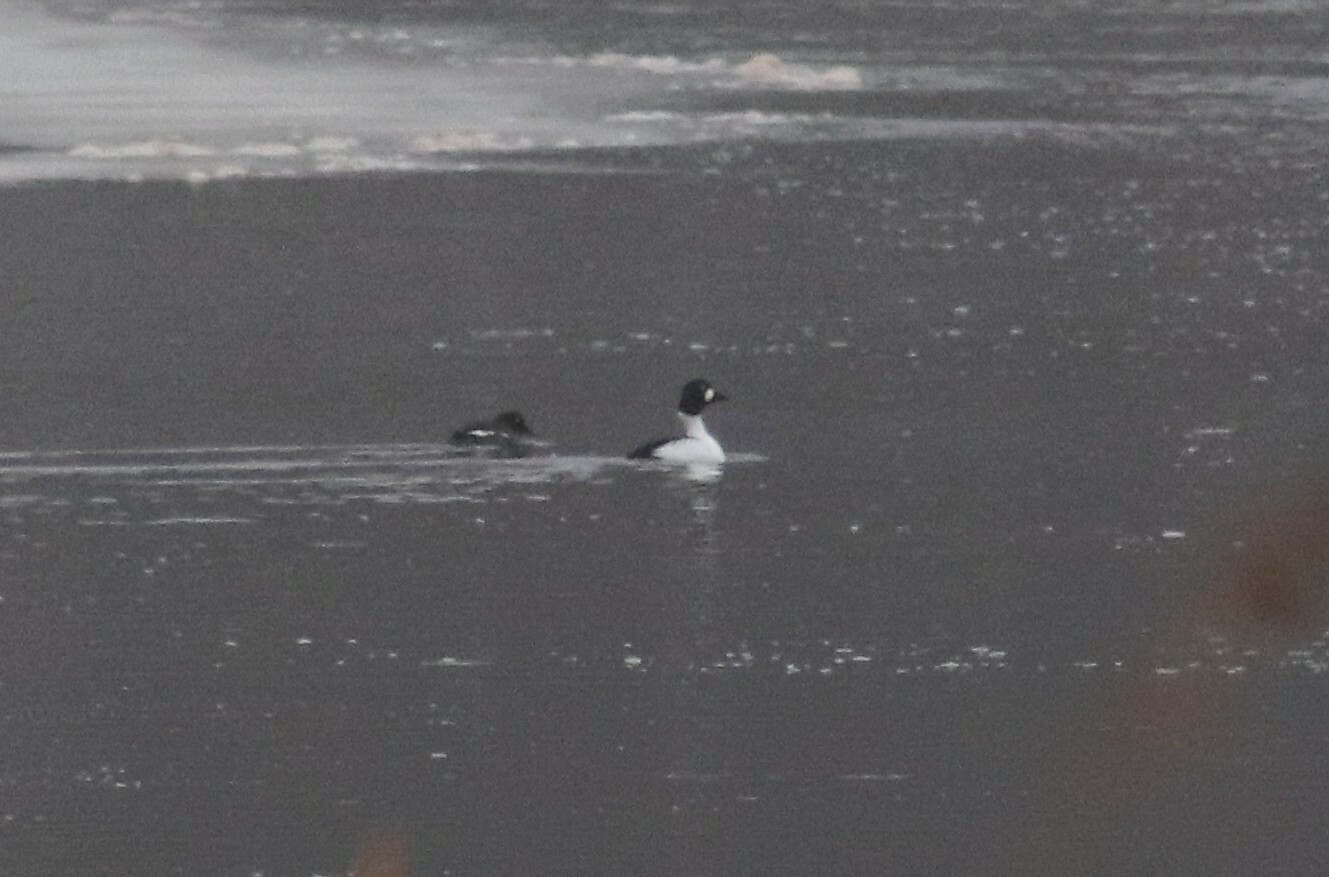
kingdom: Animalia
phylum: Chordata
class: Aves
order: Anseriformes
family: Anatidae
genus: Bucephala
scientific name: Bucephala clangula
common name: Common goldeneye
